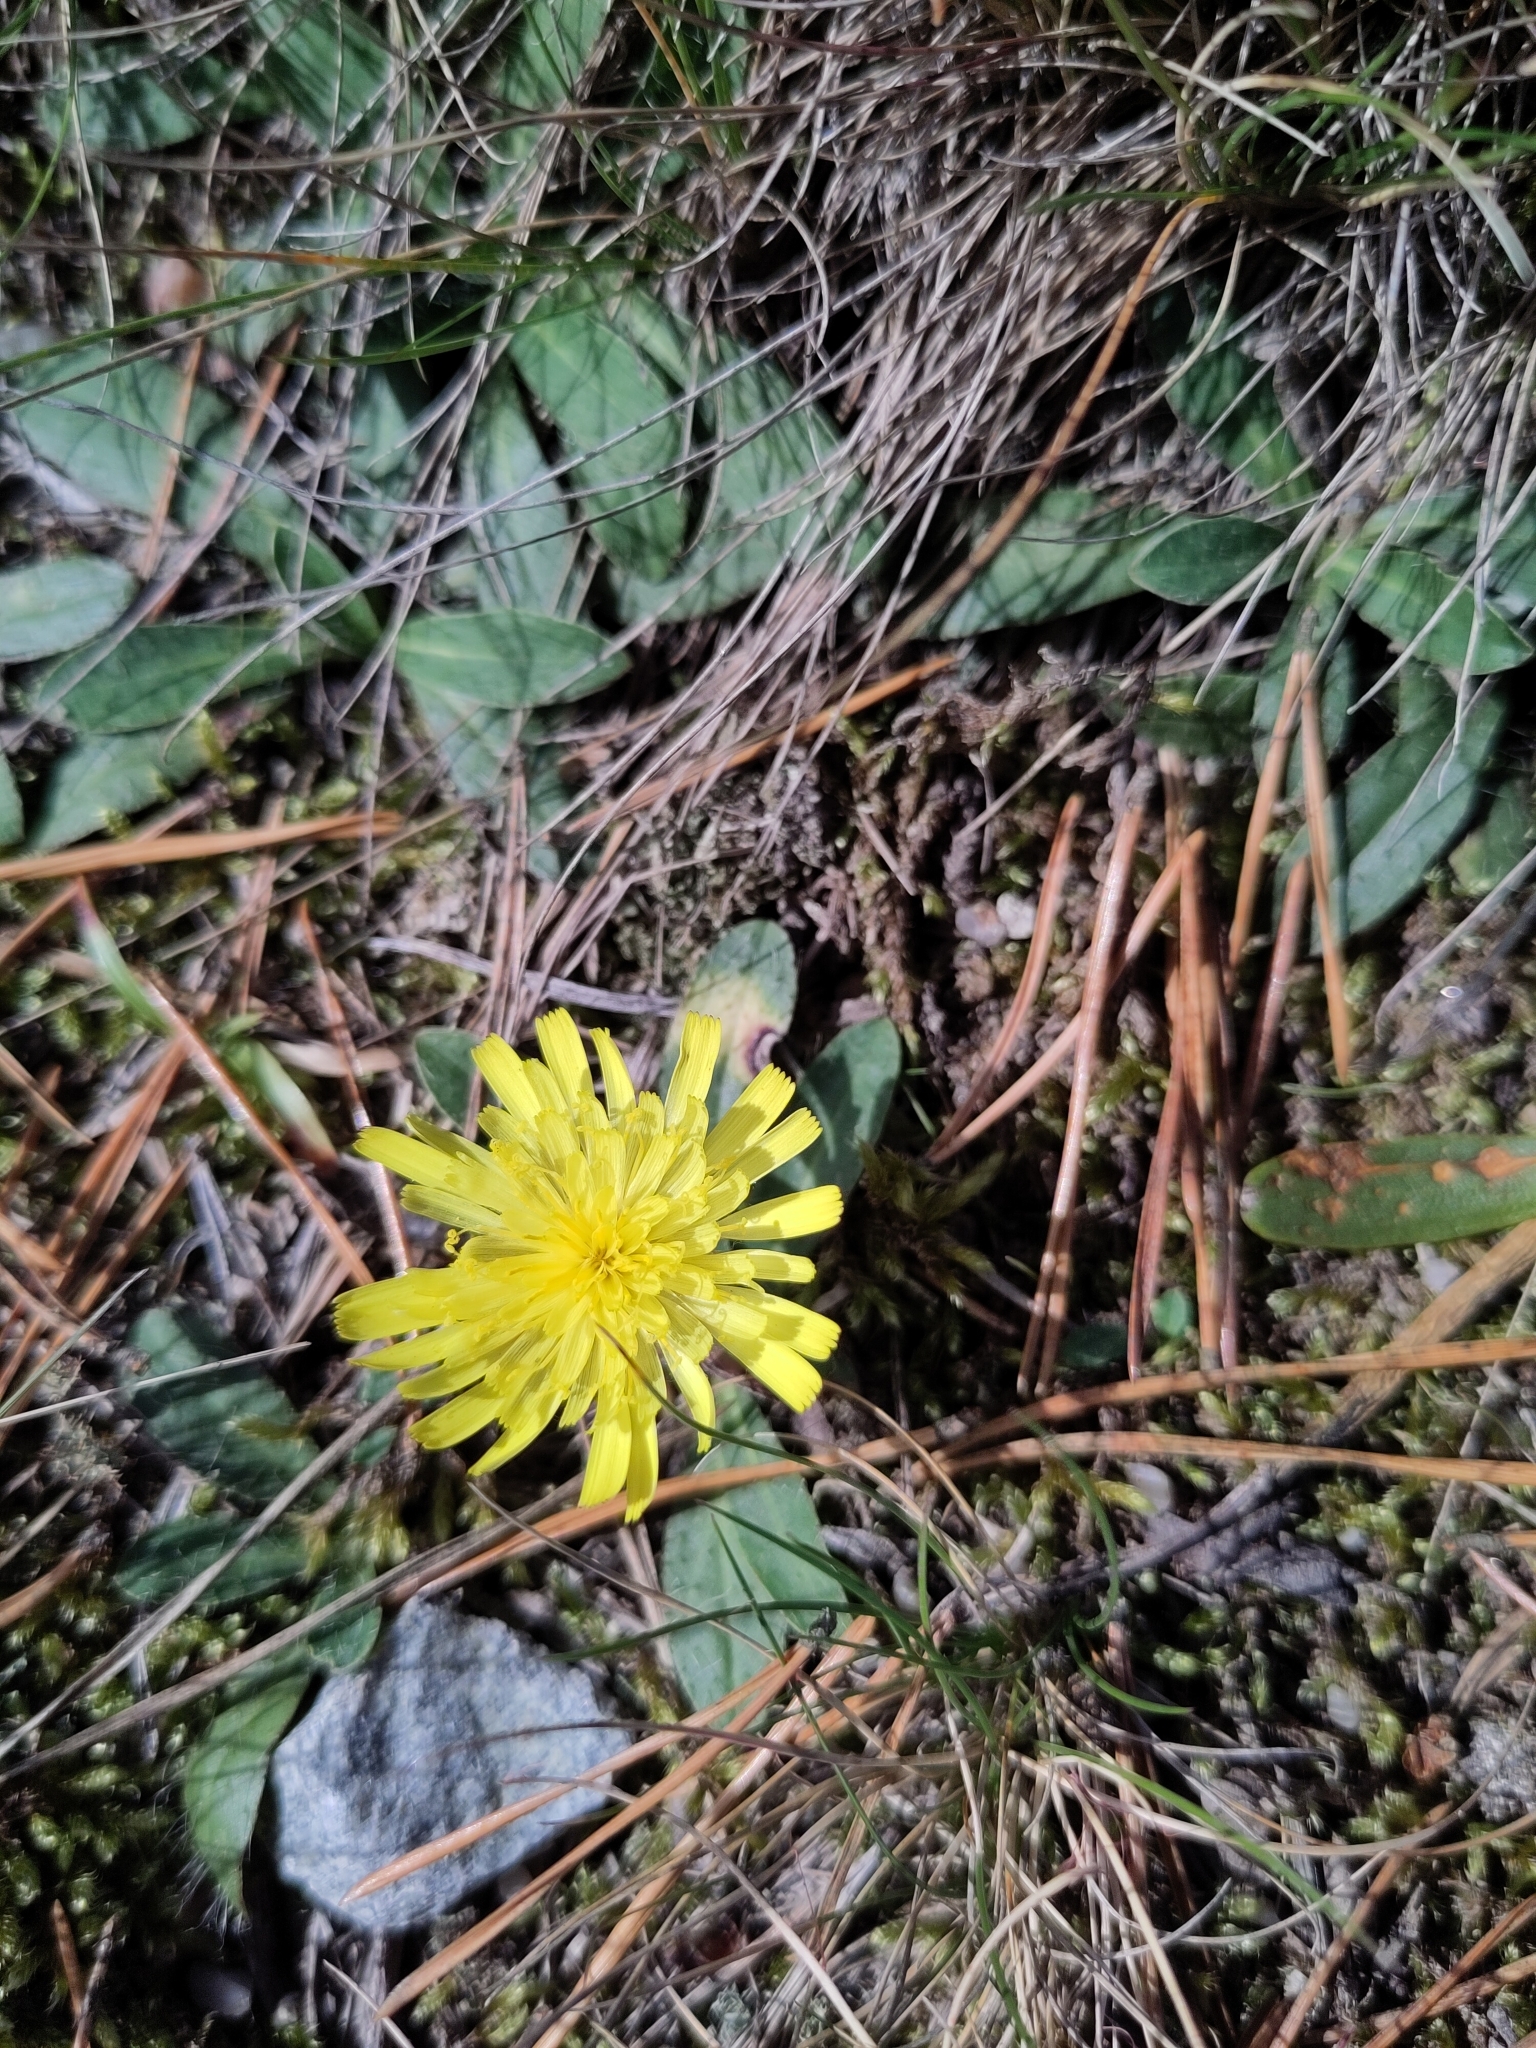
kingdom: Plantae
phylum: Tracheophyta
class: Magnoliopsida
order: Asterales
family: Asteraceae
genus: Pilosella
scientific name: Pilosella officinarum
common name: Mouse-ear hawkweed
